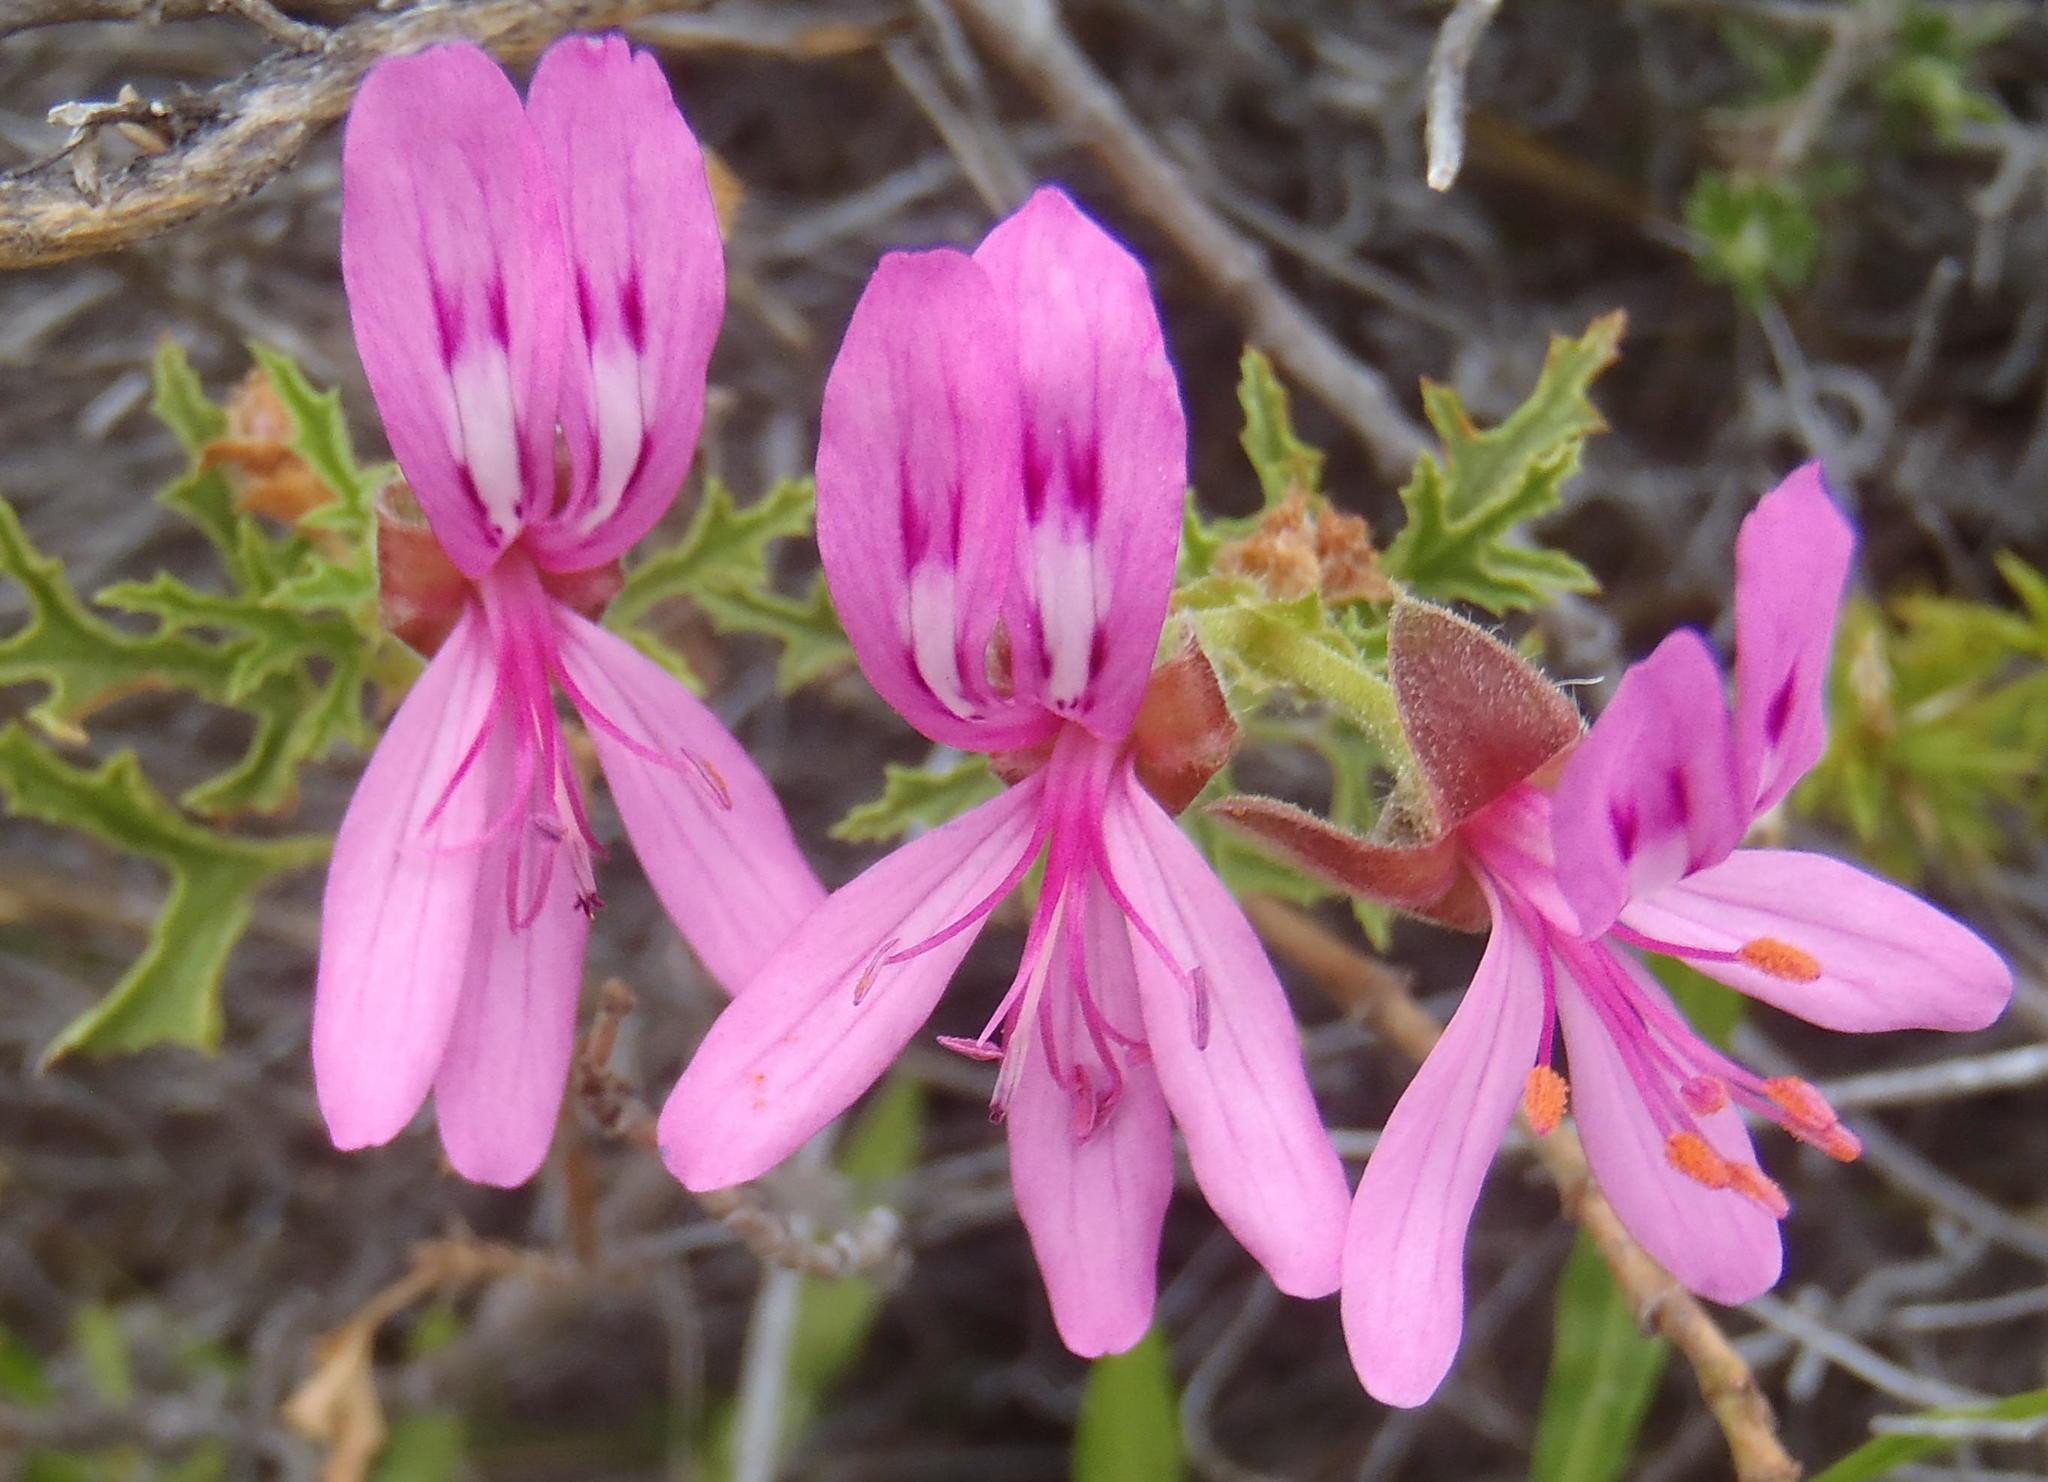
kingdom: Plantae
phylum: Tracheophyta
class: Magnoliopsida
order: Geraniales
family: Geraniaceae
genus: Pelargonium
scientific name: Pelargonium pseudoglutinosum
